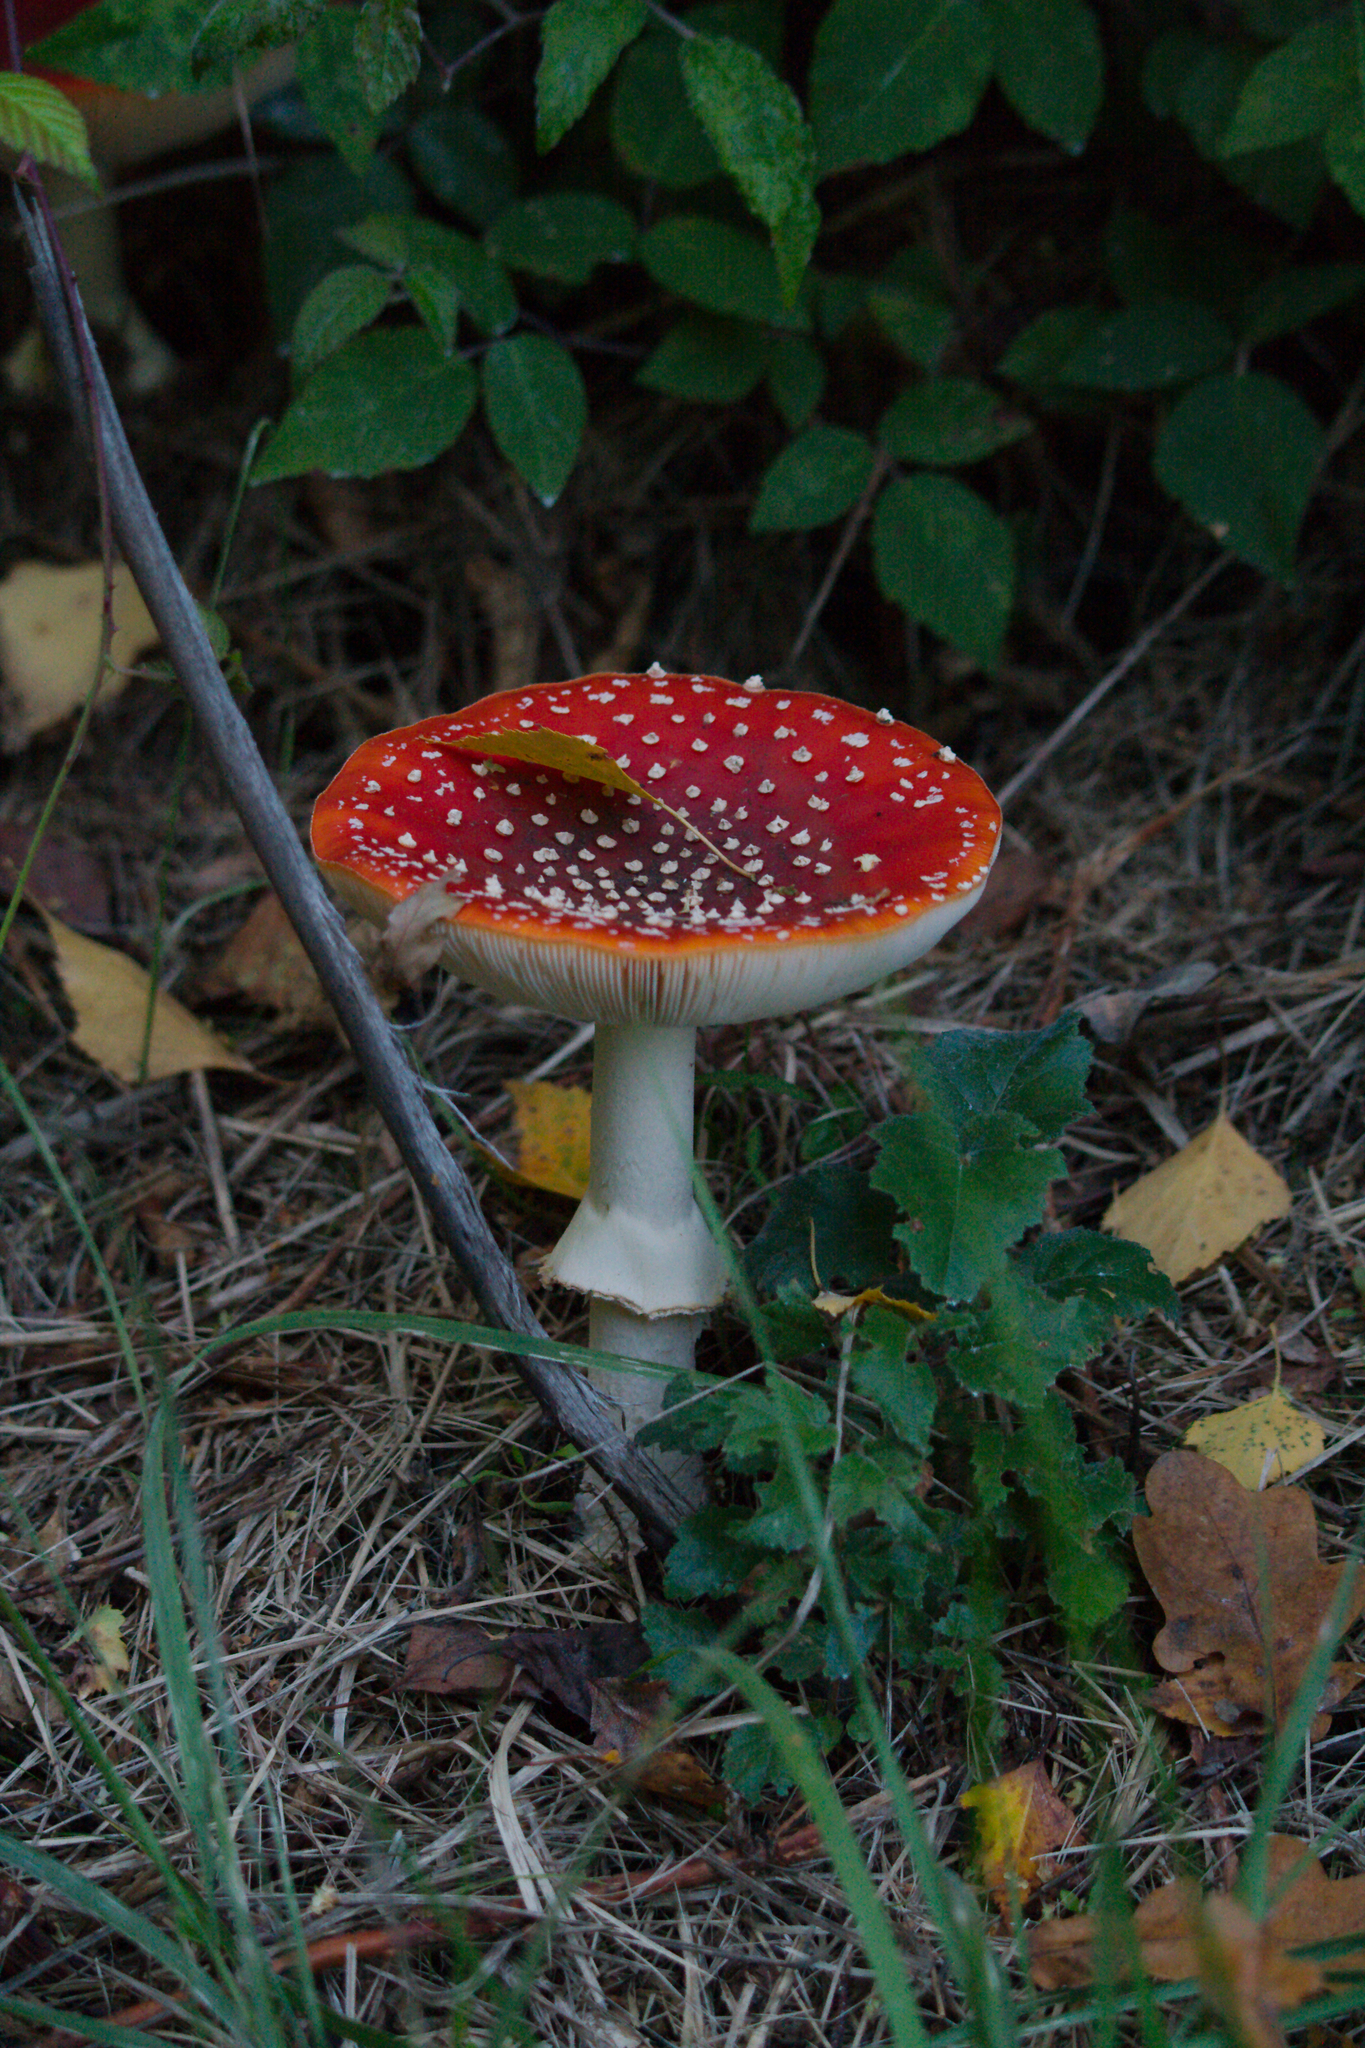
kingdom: Fungi
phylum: Basidiomycota
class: Agaricomycetes
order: Agaricales
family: Amanitaceae
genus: Amanita
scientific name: Amanita muscaria
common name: Fly agaric
